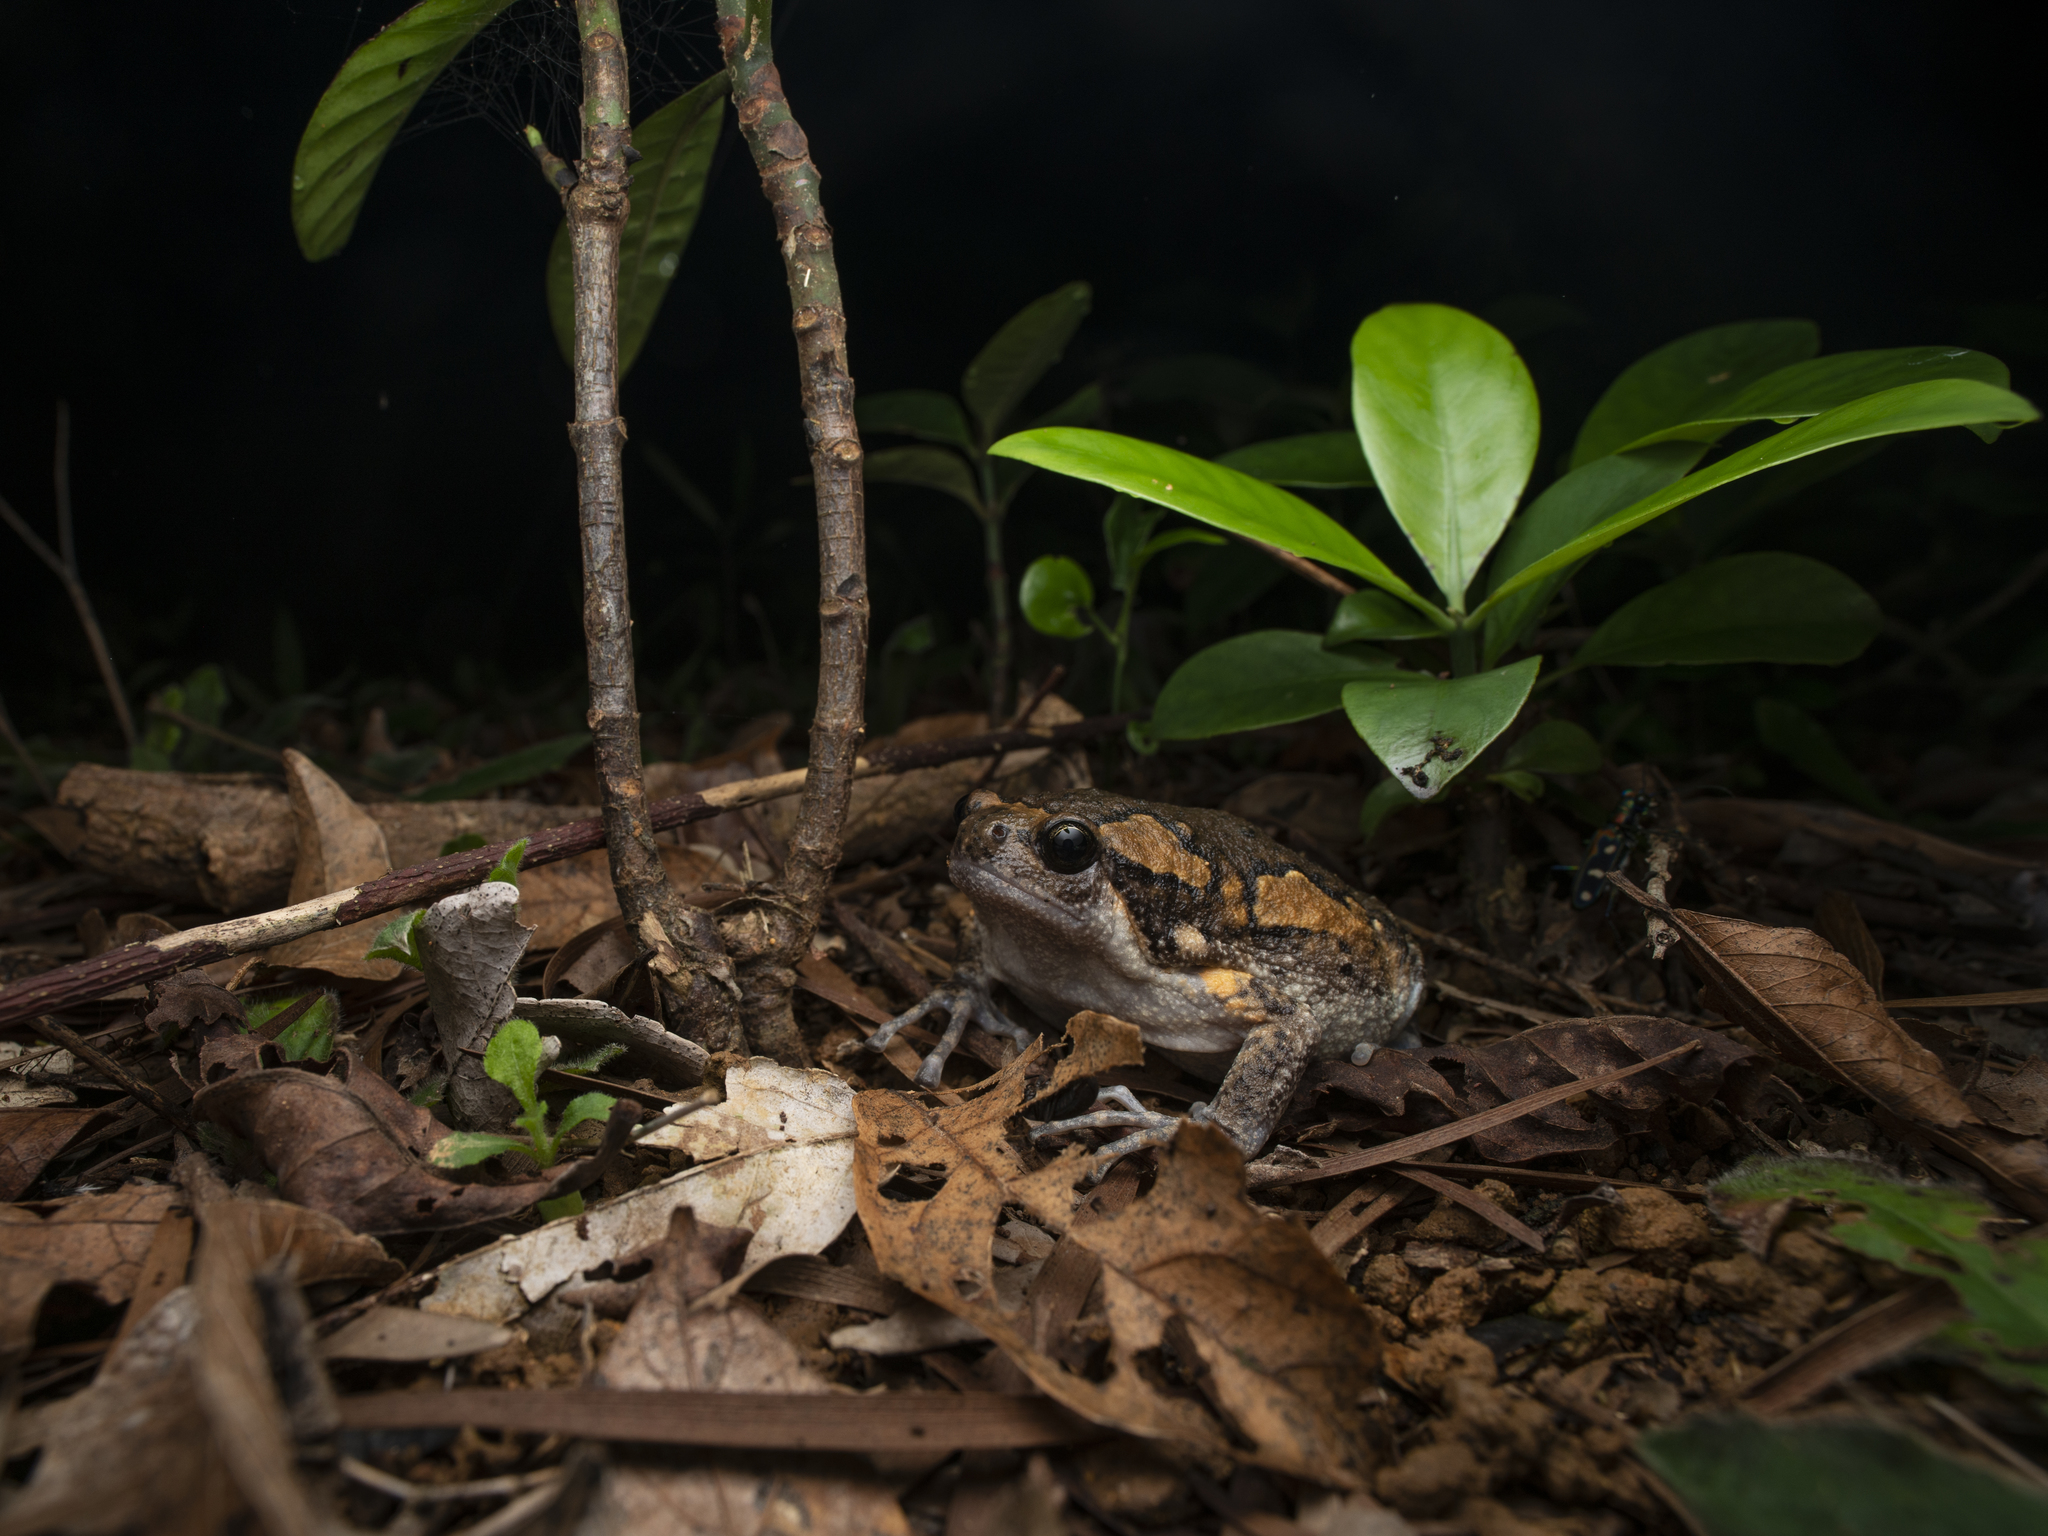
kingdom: Animalia
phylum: Chordata
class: Amphibia
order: Anura
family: Microhylidae
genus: Kaloula
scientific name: Kaloula pulchra
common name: Common,banded bullfrog
